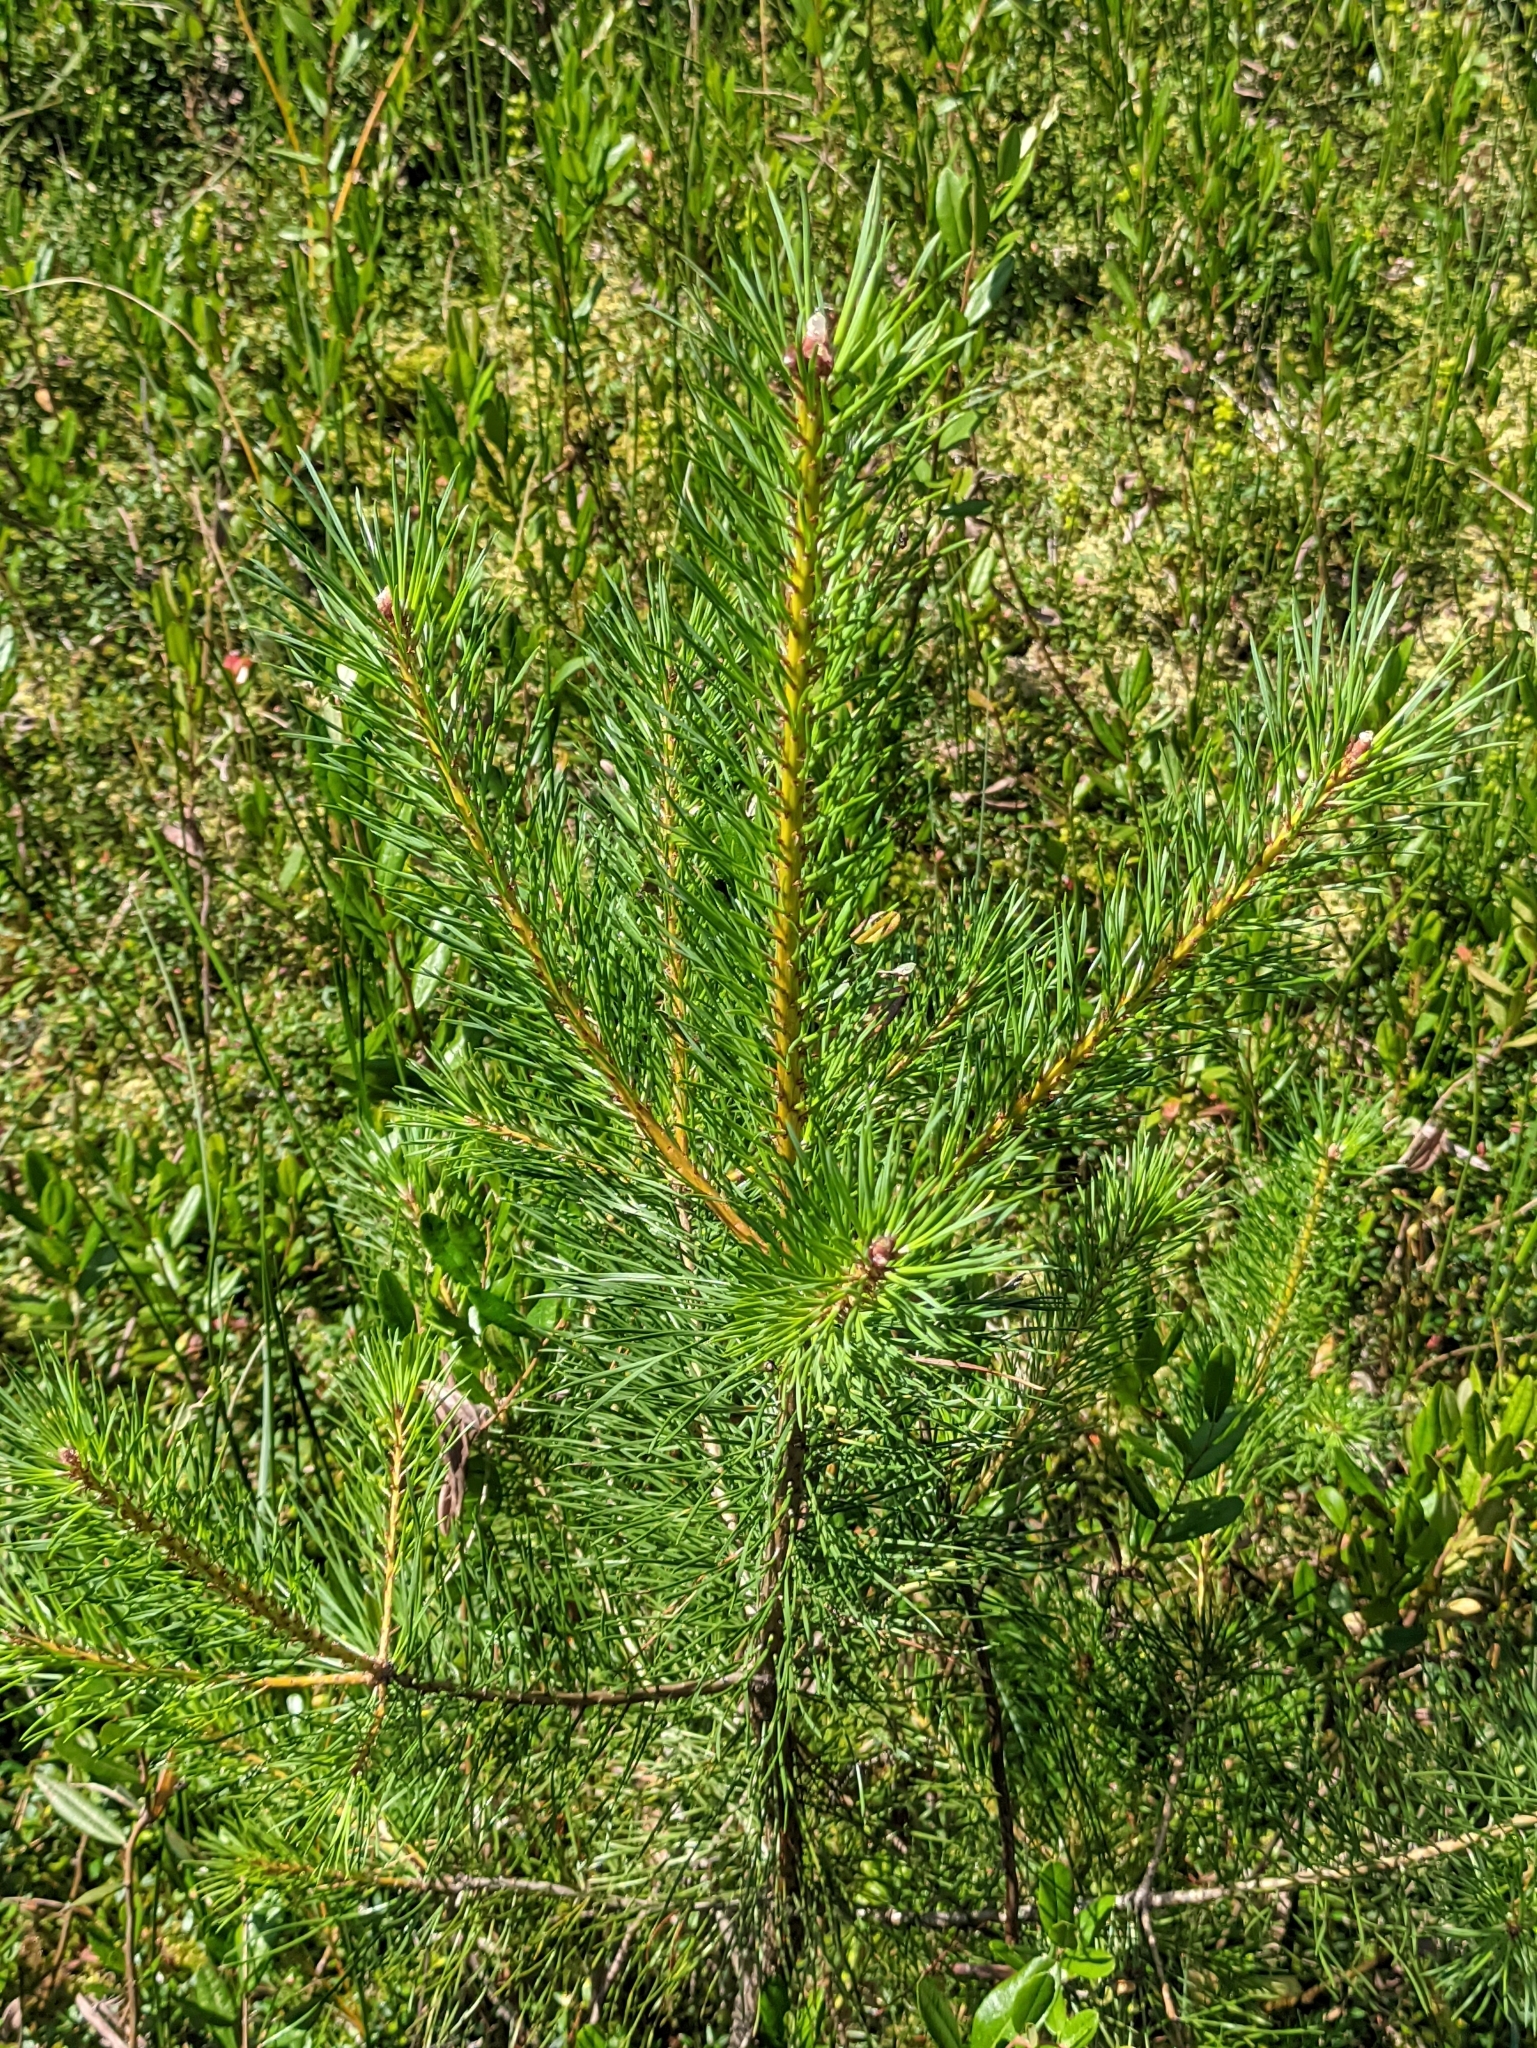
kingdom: Plantae
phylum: Tracheophyta
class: Pinopsida
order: Pinales
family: Pinaceae
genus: Pinus
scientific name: Pinus sylvestris
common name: Scots pine
